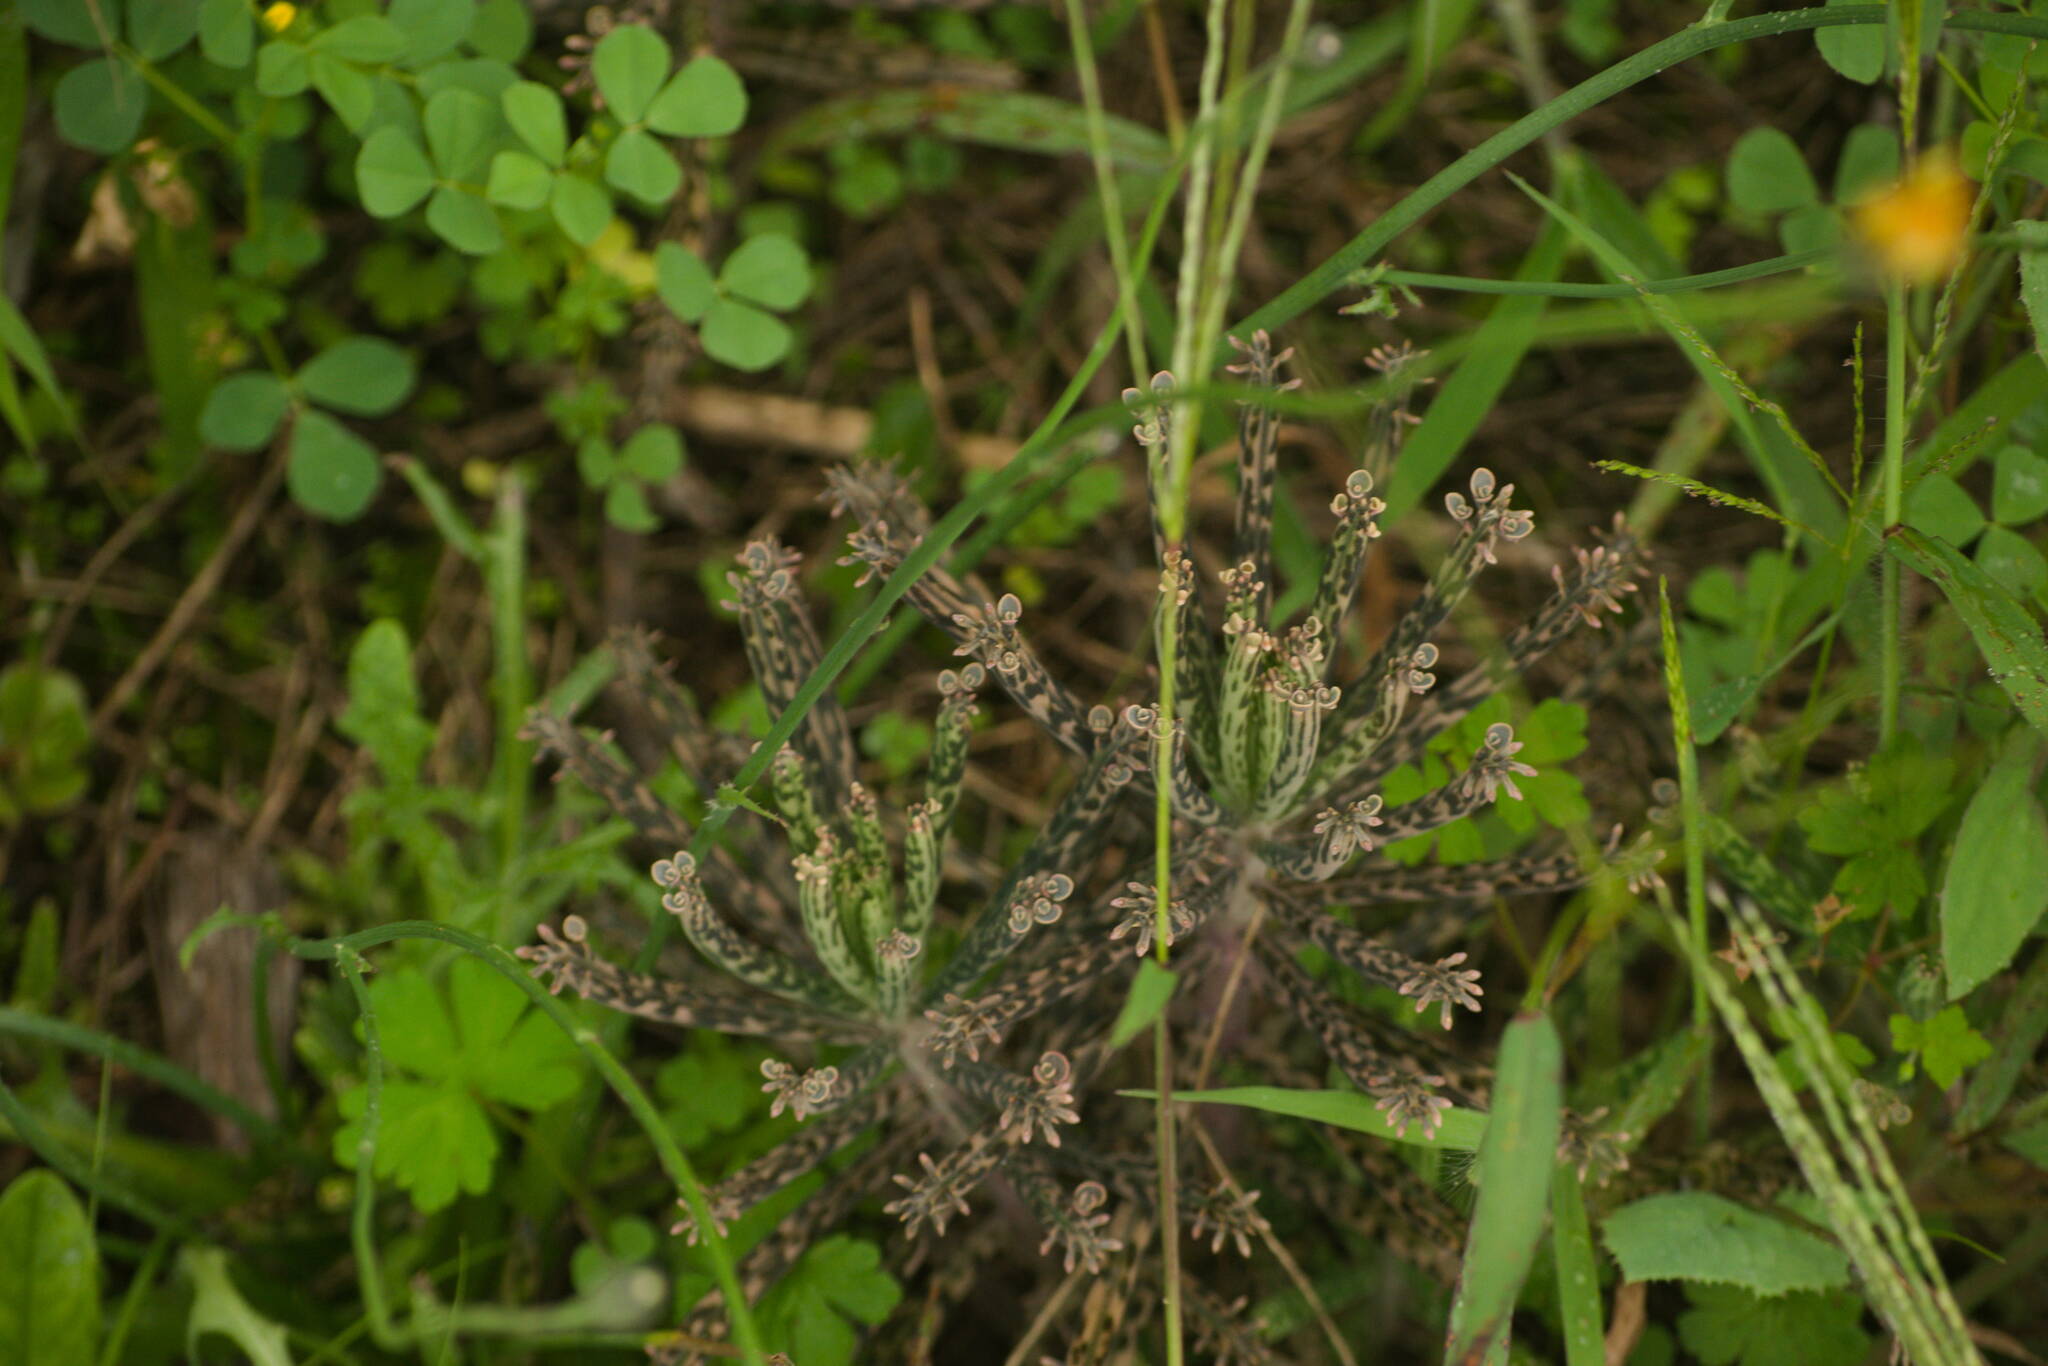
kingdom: Plantae
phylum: Tracheophyta
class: Magnoliopsida
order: Saxifragales
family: Crassulaceae
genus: Kalanchoe
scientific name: Kalanchoe delagoensis
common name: Chandelier plant
